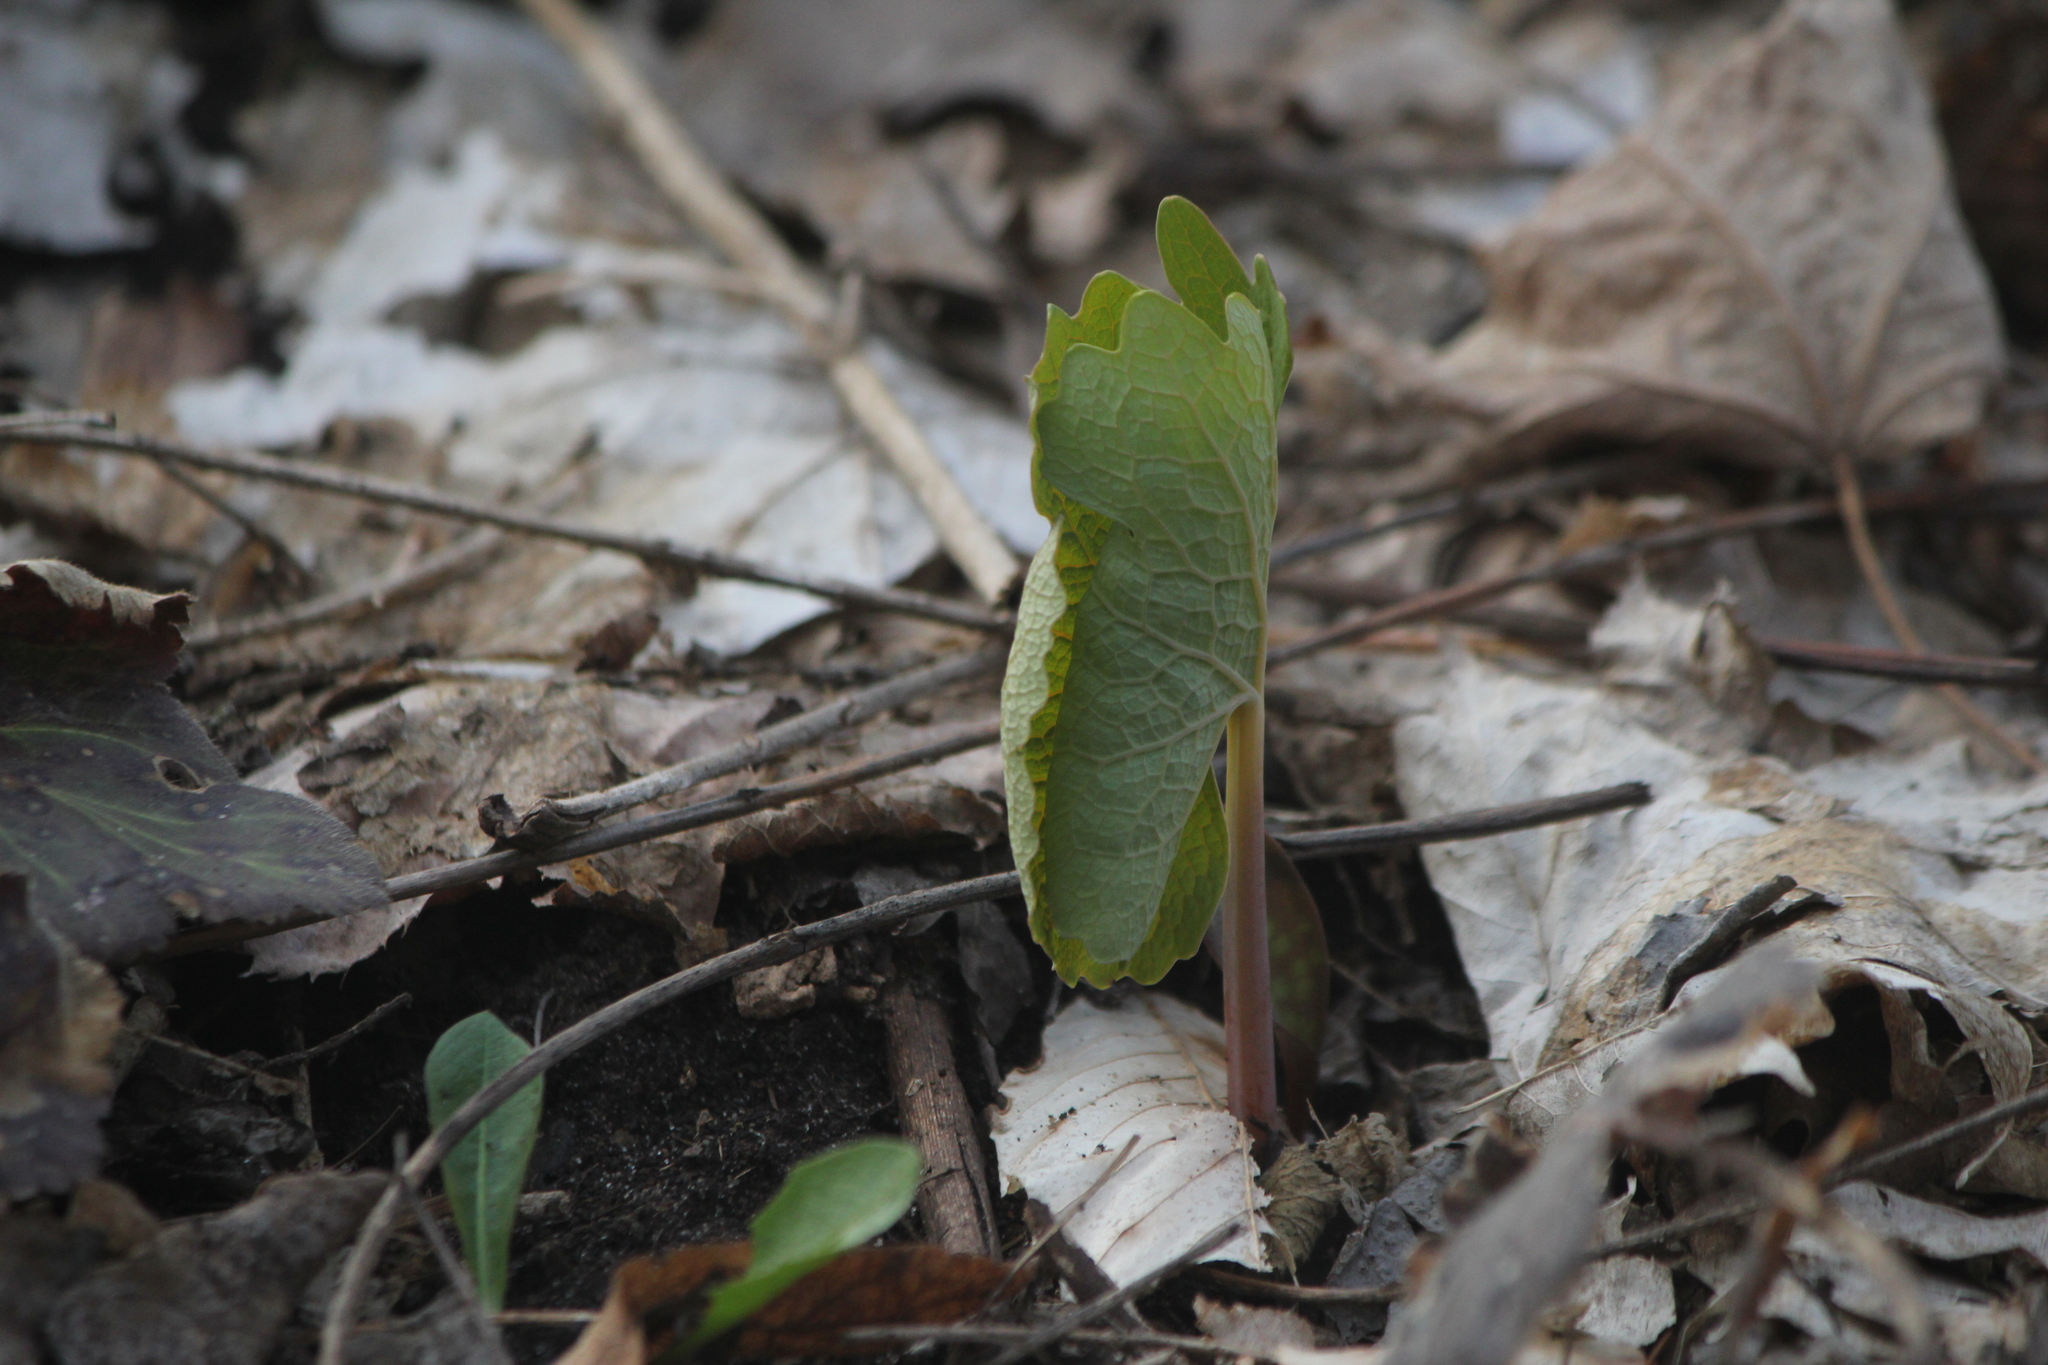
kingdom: Plantae
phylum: Tracheophyta
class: Magnoliopsida
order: Ranunculales
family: Papaveraceae
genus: Sanguinaria
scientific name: Sanguinaria canadensis
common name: Bloodroot
